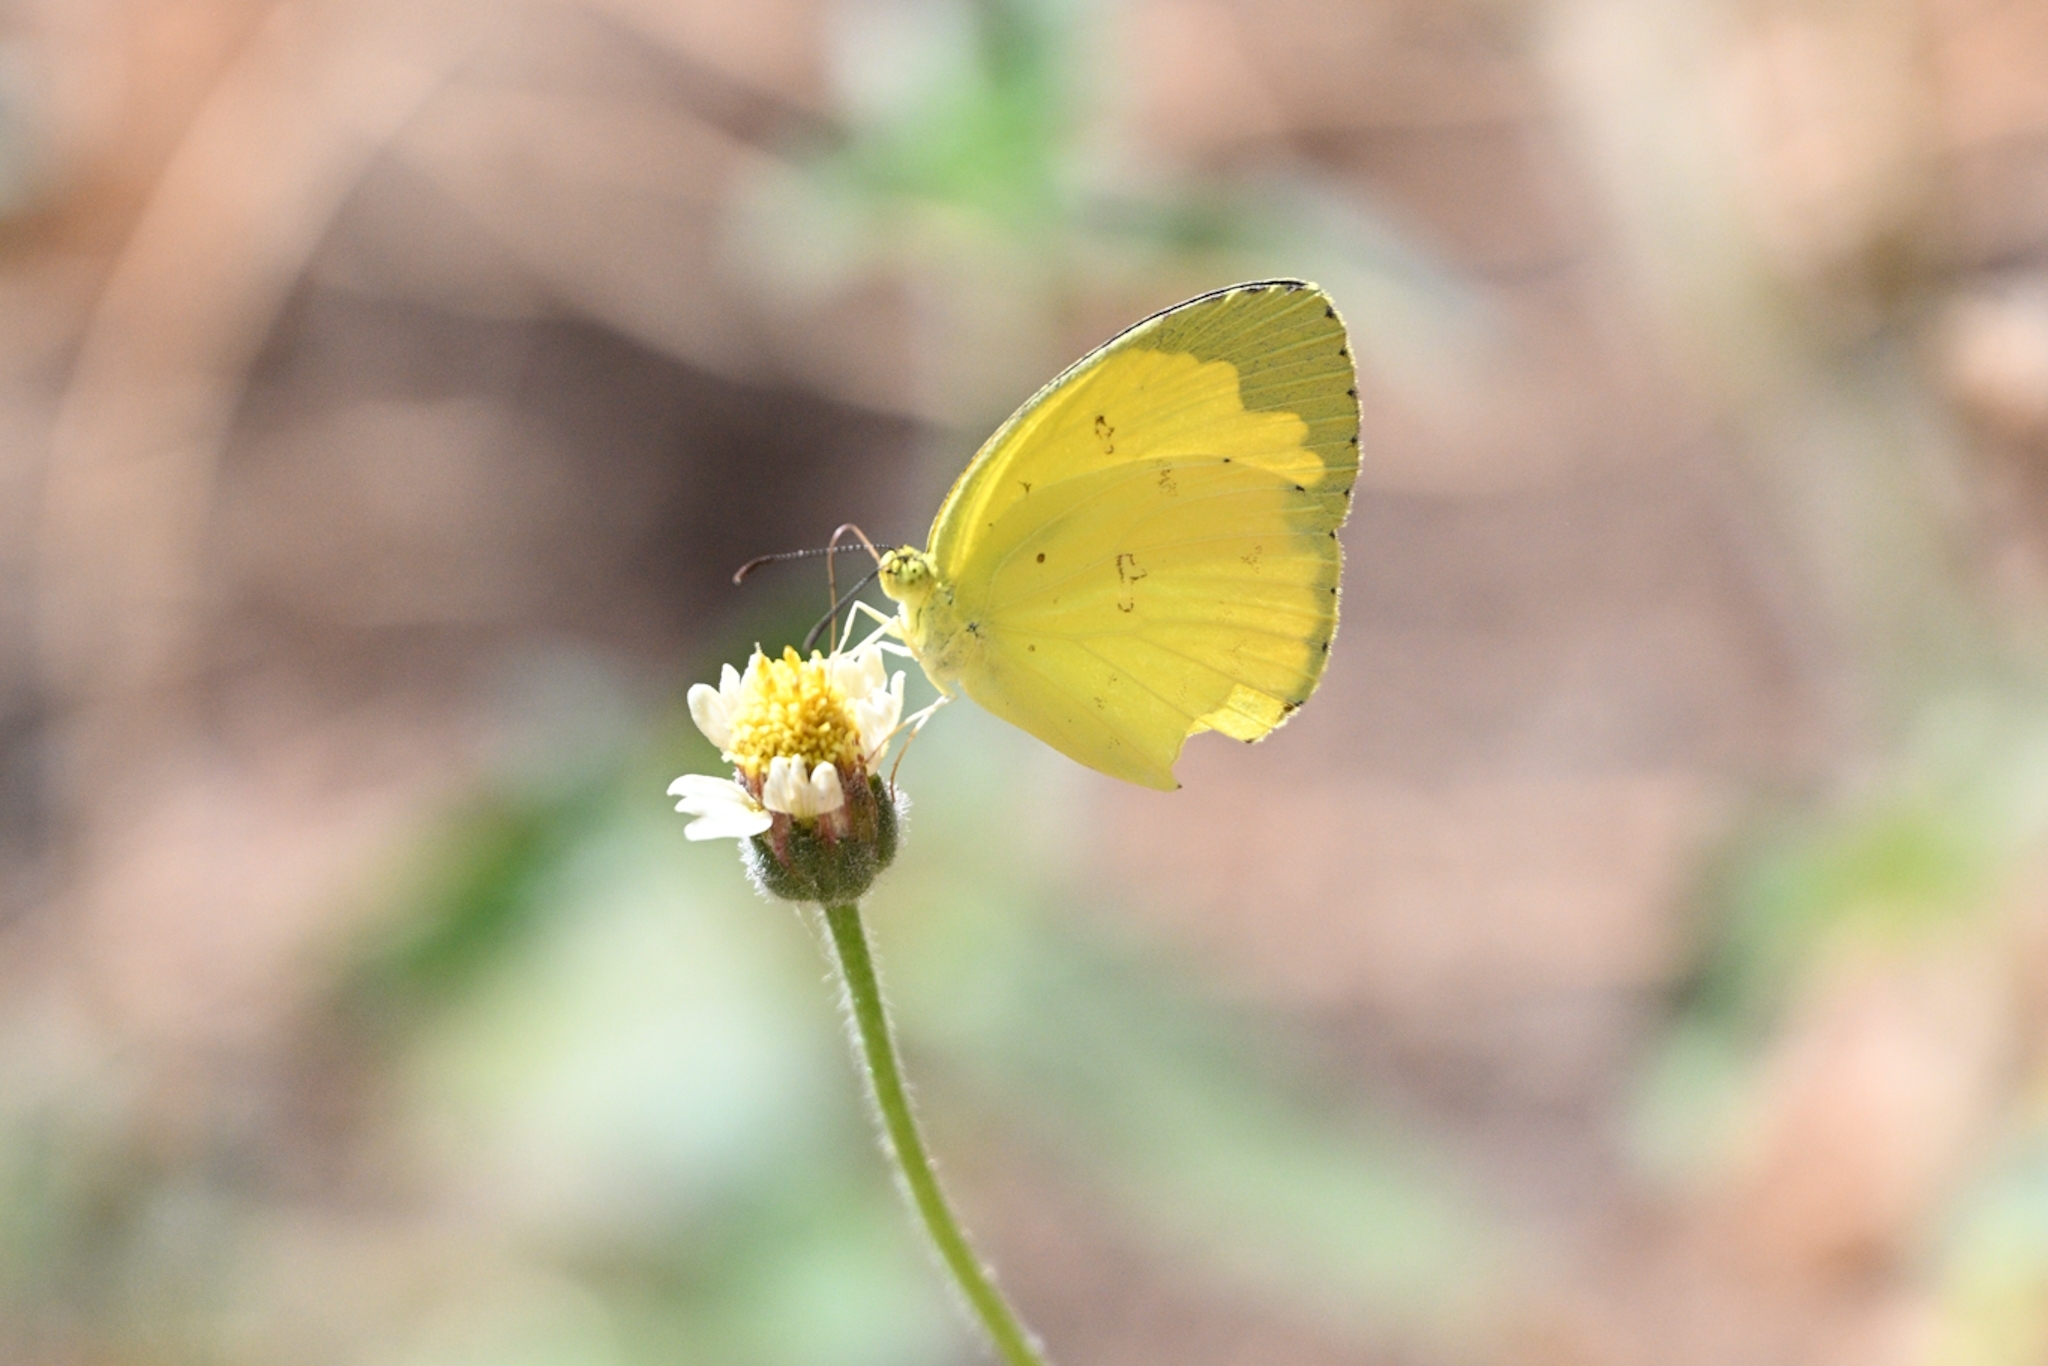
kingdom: Animalia
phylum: Arthropoda
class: Insecta
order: Lepidoptera
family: Pieridae
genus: Eurema
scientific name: Eurema hecabe
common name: Pale grass yellow
